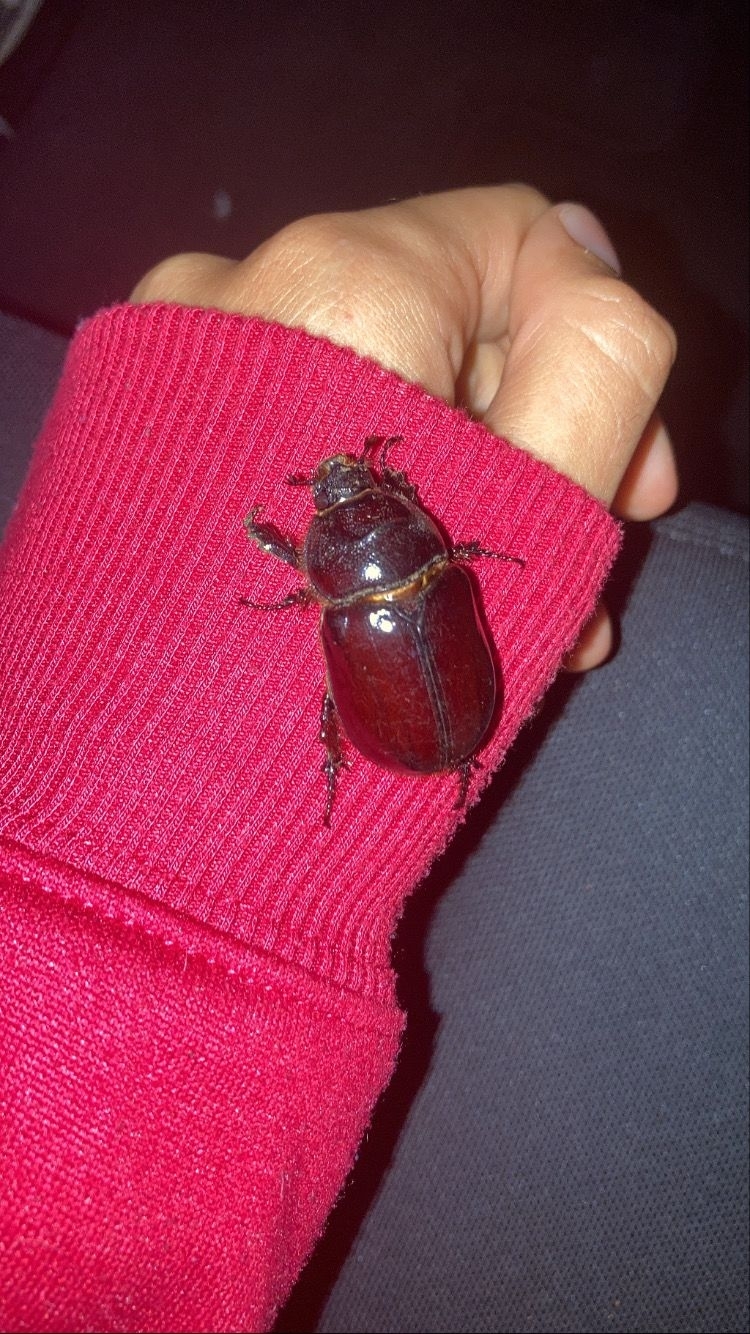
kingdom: Animalia
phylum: Arthropoda
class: Insecta
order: Coleoptera
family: Scarabaeidae
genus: Oryctes
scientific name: Oryctes nasicornis
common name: European rhinoceros beetle
